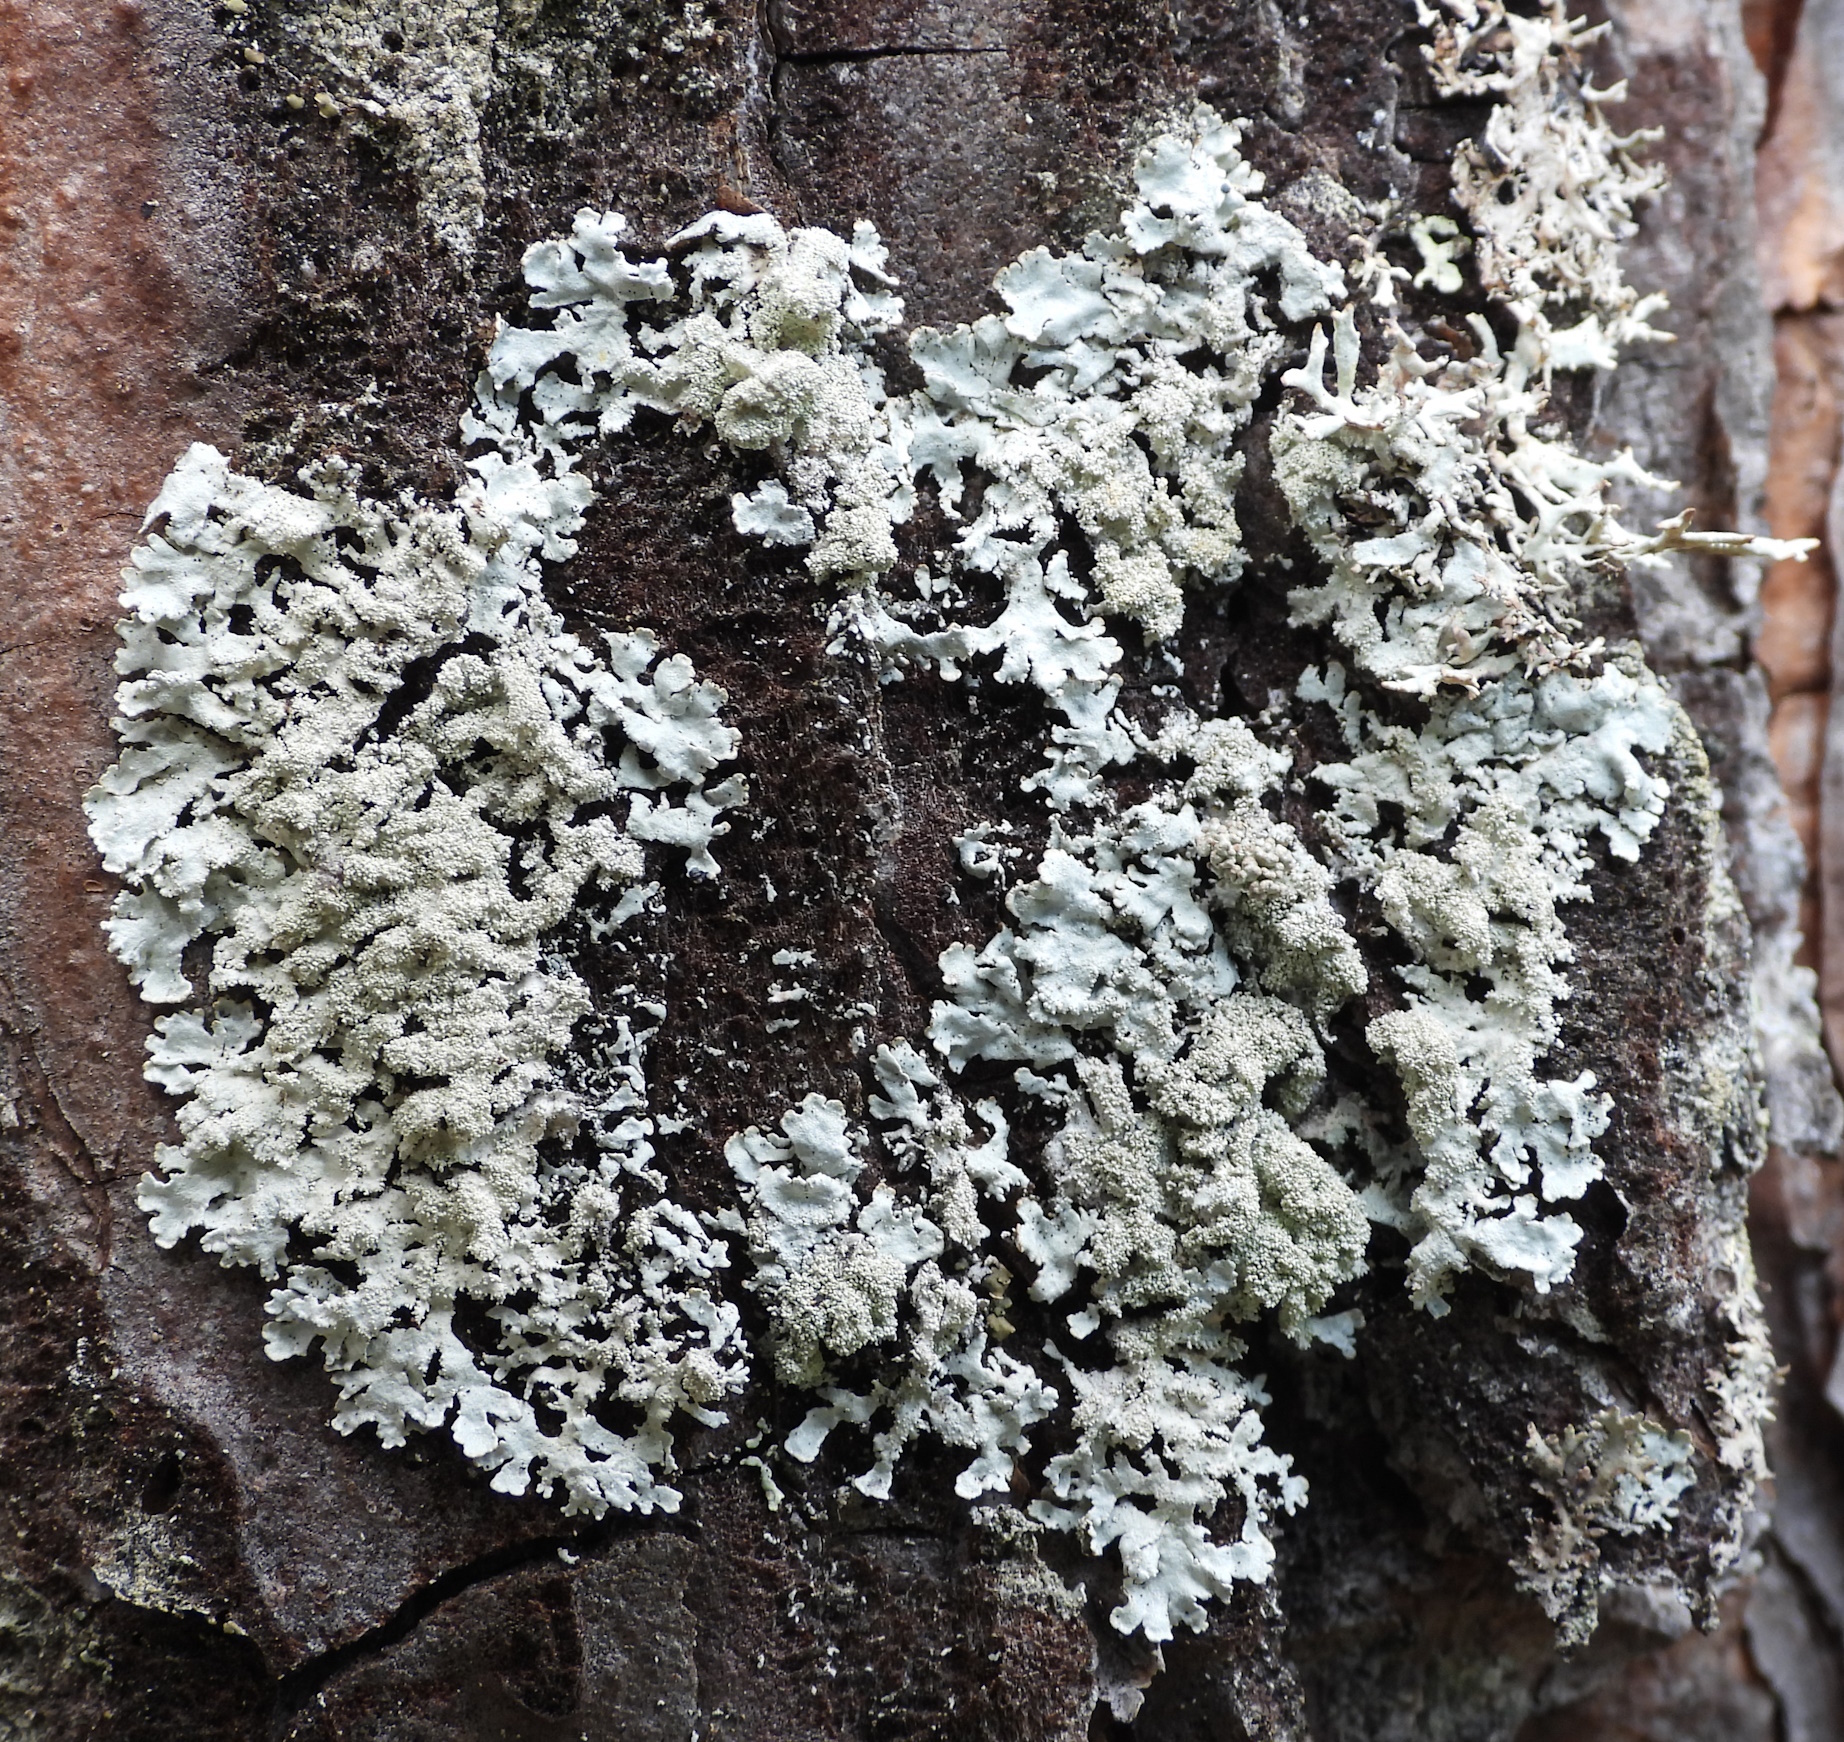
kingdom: Fungi
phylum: Ascomycota
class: Lecanoromycetes
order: Lecanorales
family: Parmeliaceae
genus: Imshaugia
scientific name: Imshaugia aleurites
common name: Salted starburst lichen
